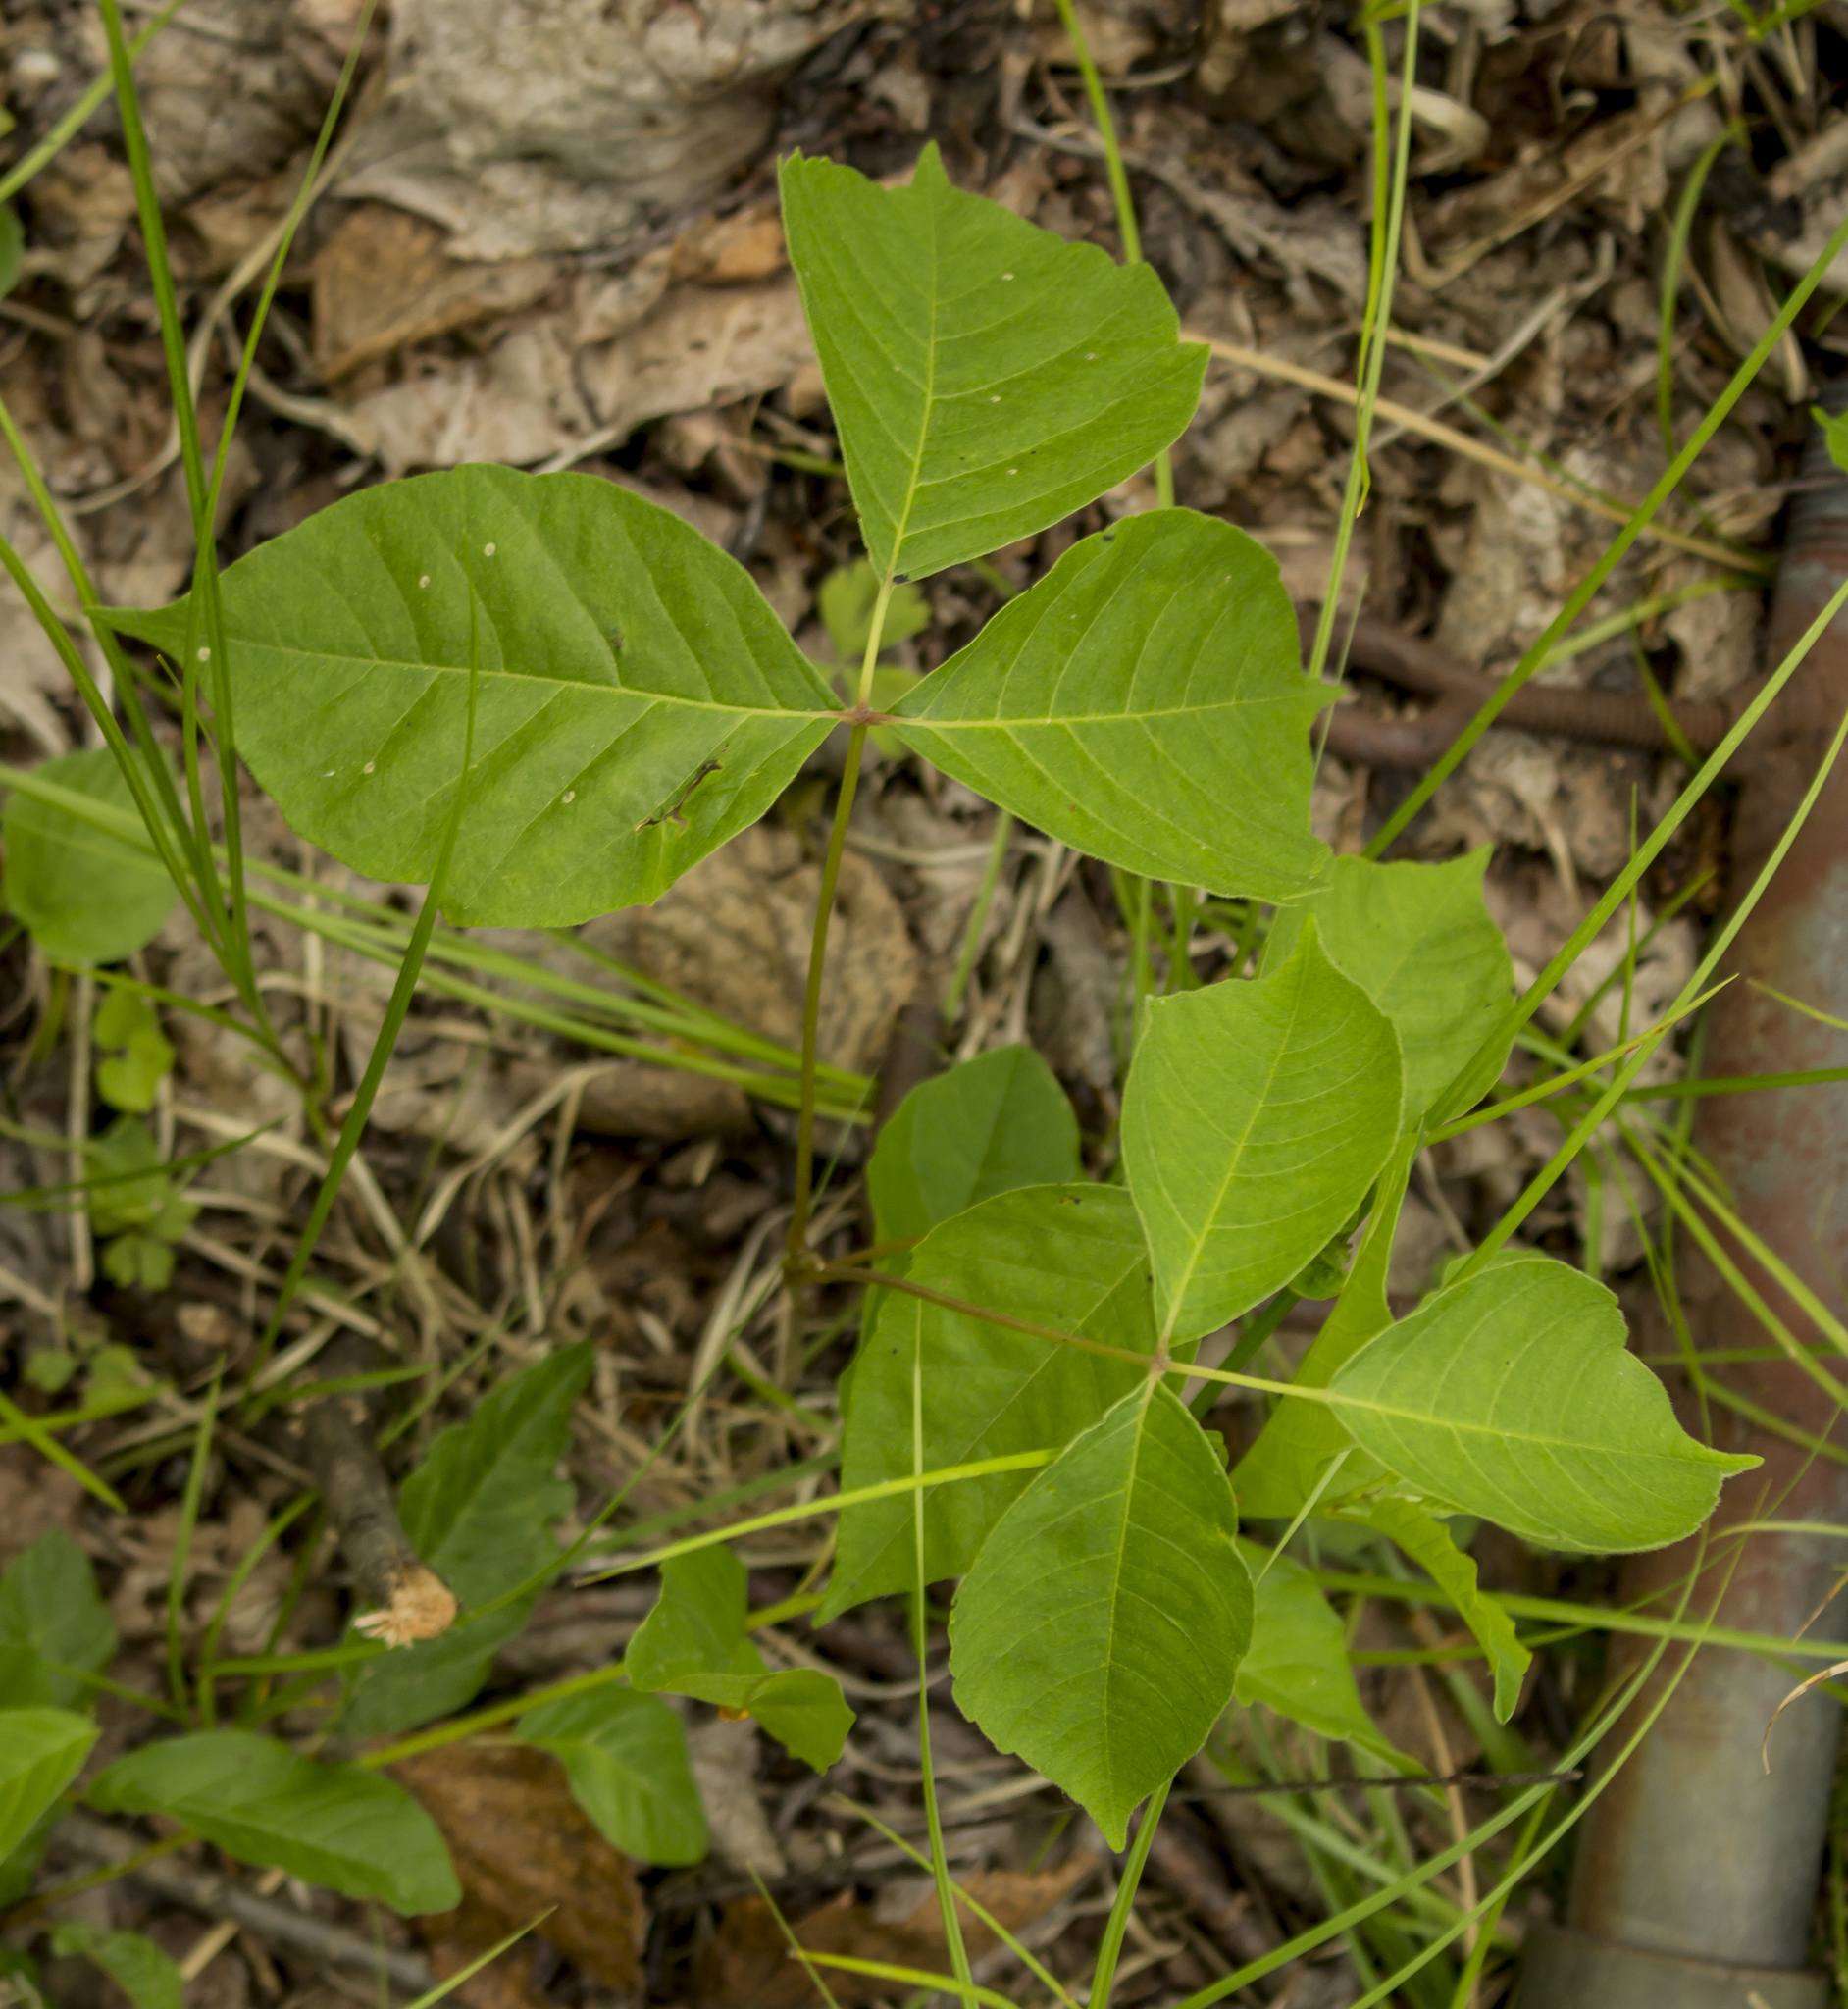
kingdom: Plantae
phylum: Tracheophyta
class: Magnoliopsida
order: Sapindales
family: Anacardiaceae
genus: Toxicodendron
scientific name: Toxicodendron rydbergii
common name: Rydberg's poison-ivy
